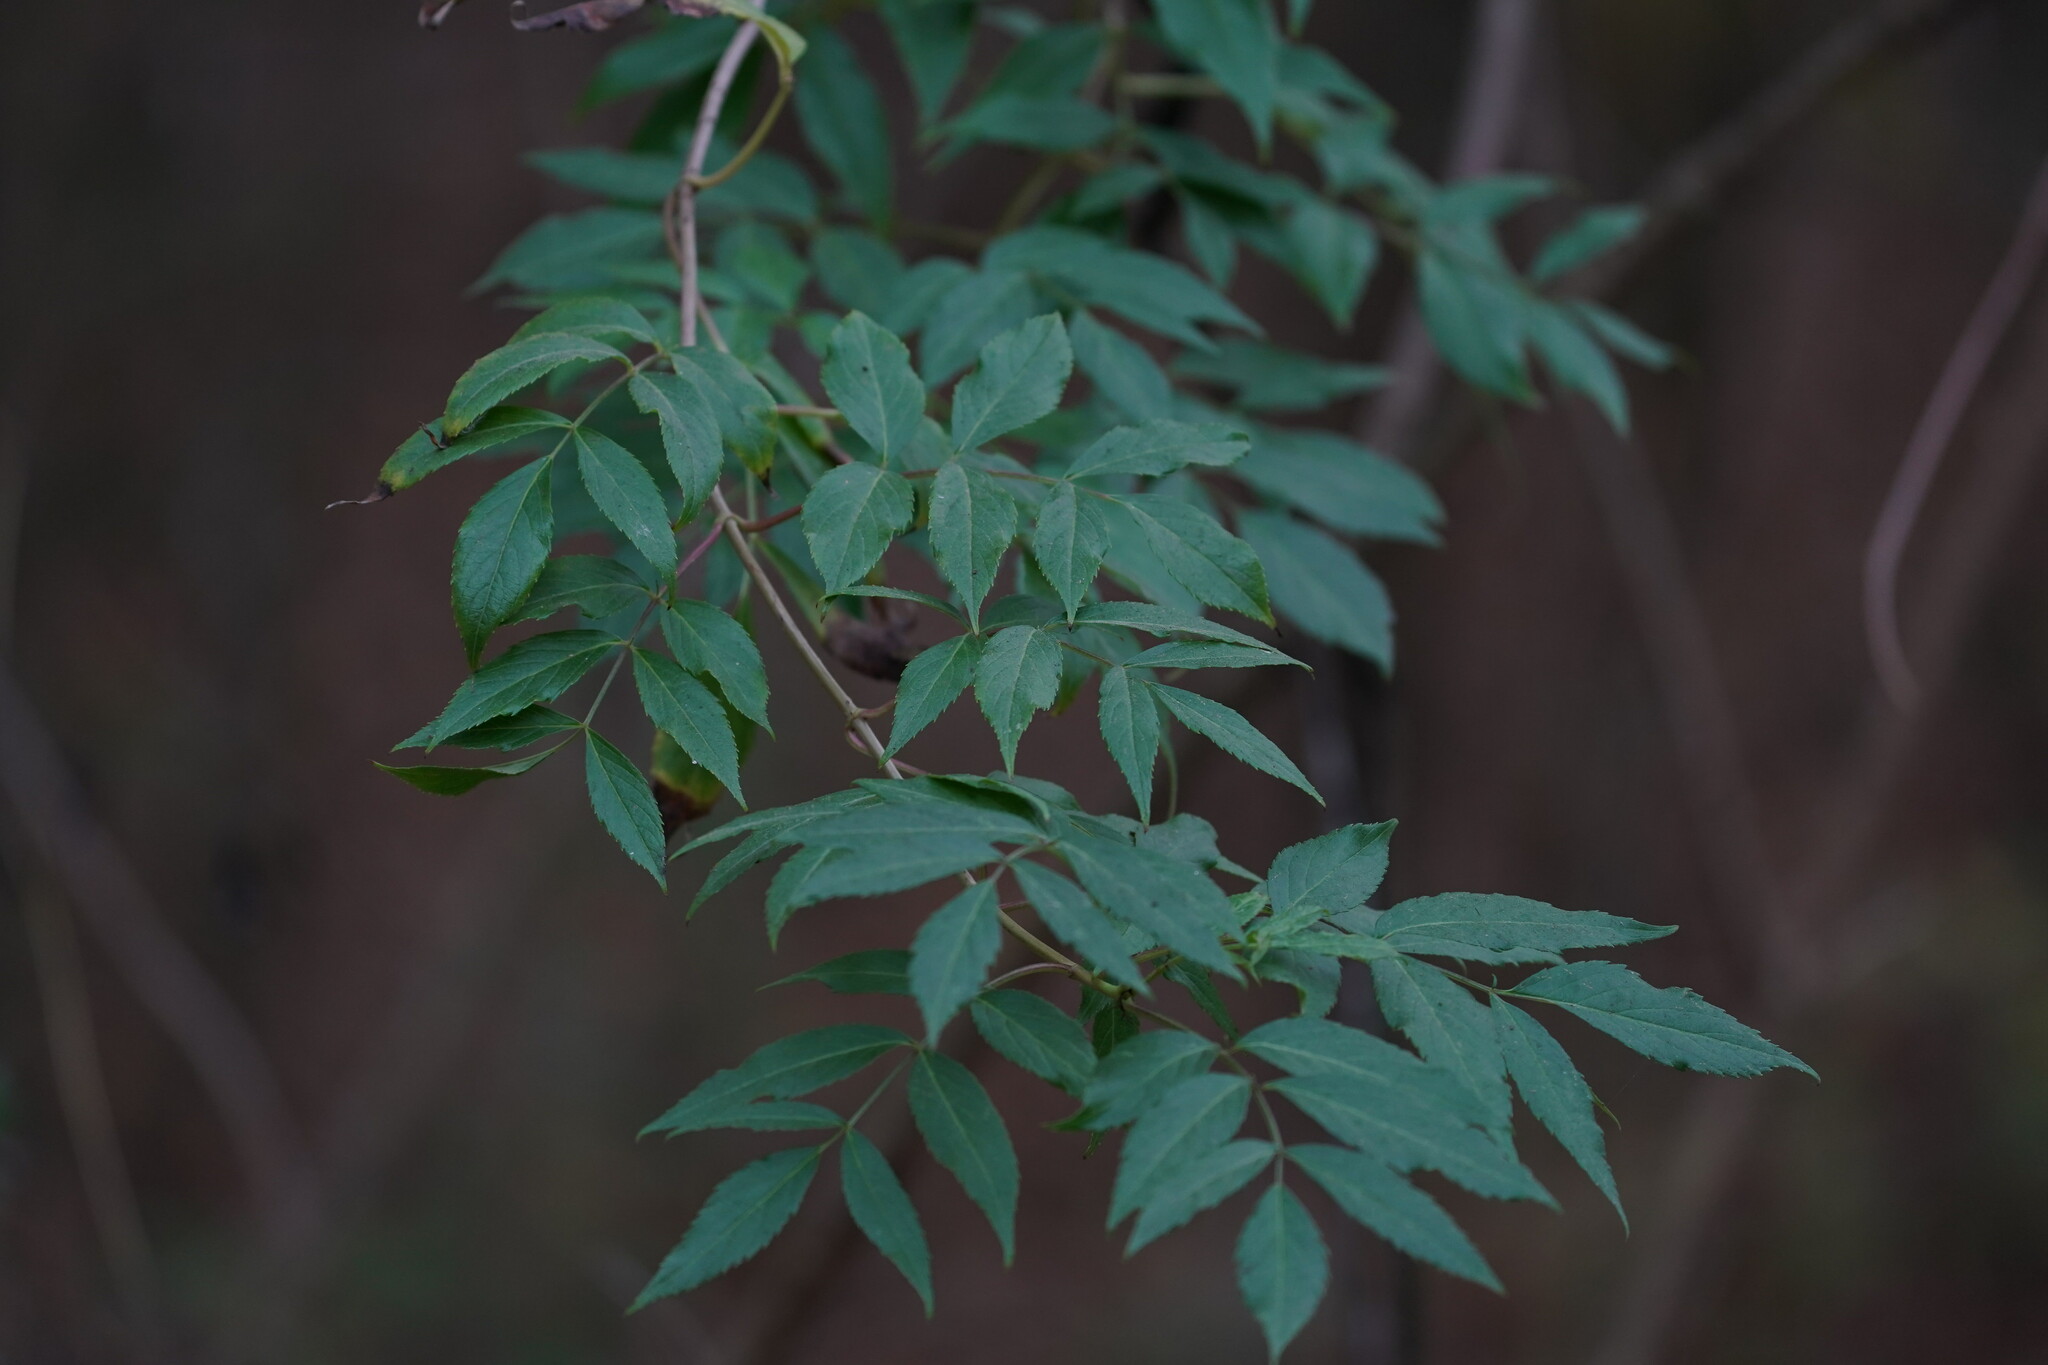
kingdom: Plantae
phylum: Tracheophyta
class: Magnoliopsida
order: Dipsacales
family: Viburnaceae
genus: Sambucus
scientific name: Sambucus canadensis
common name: American elder
